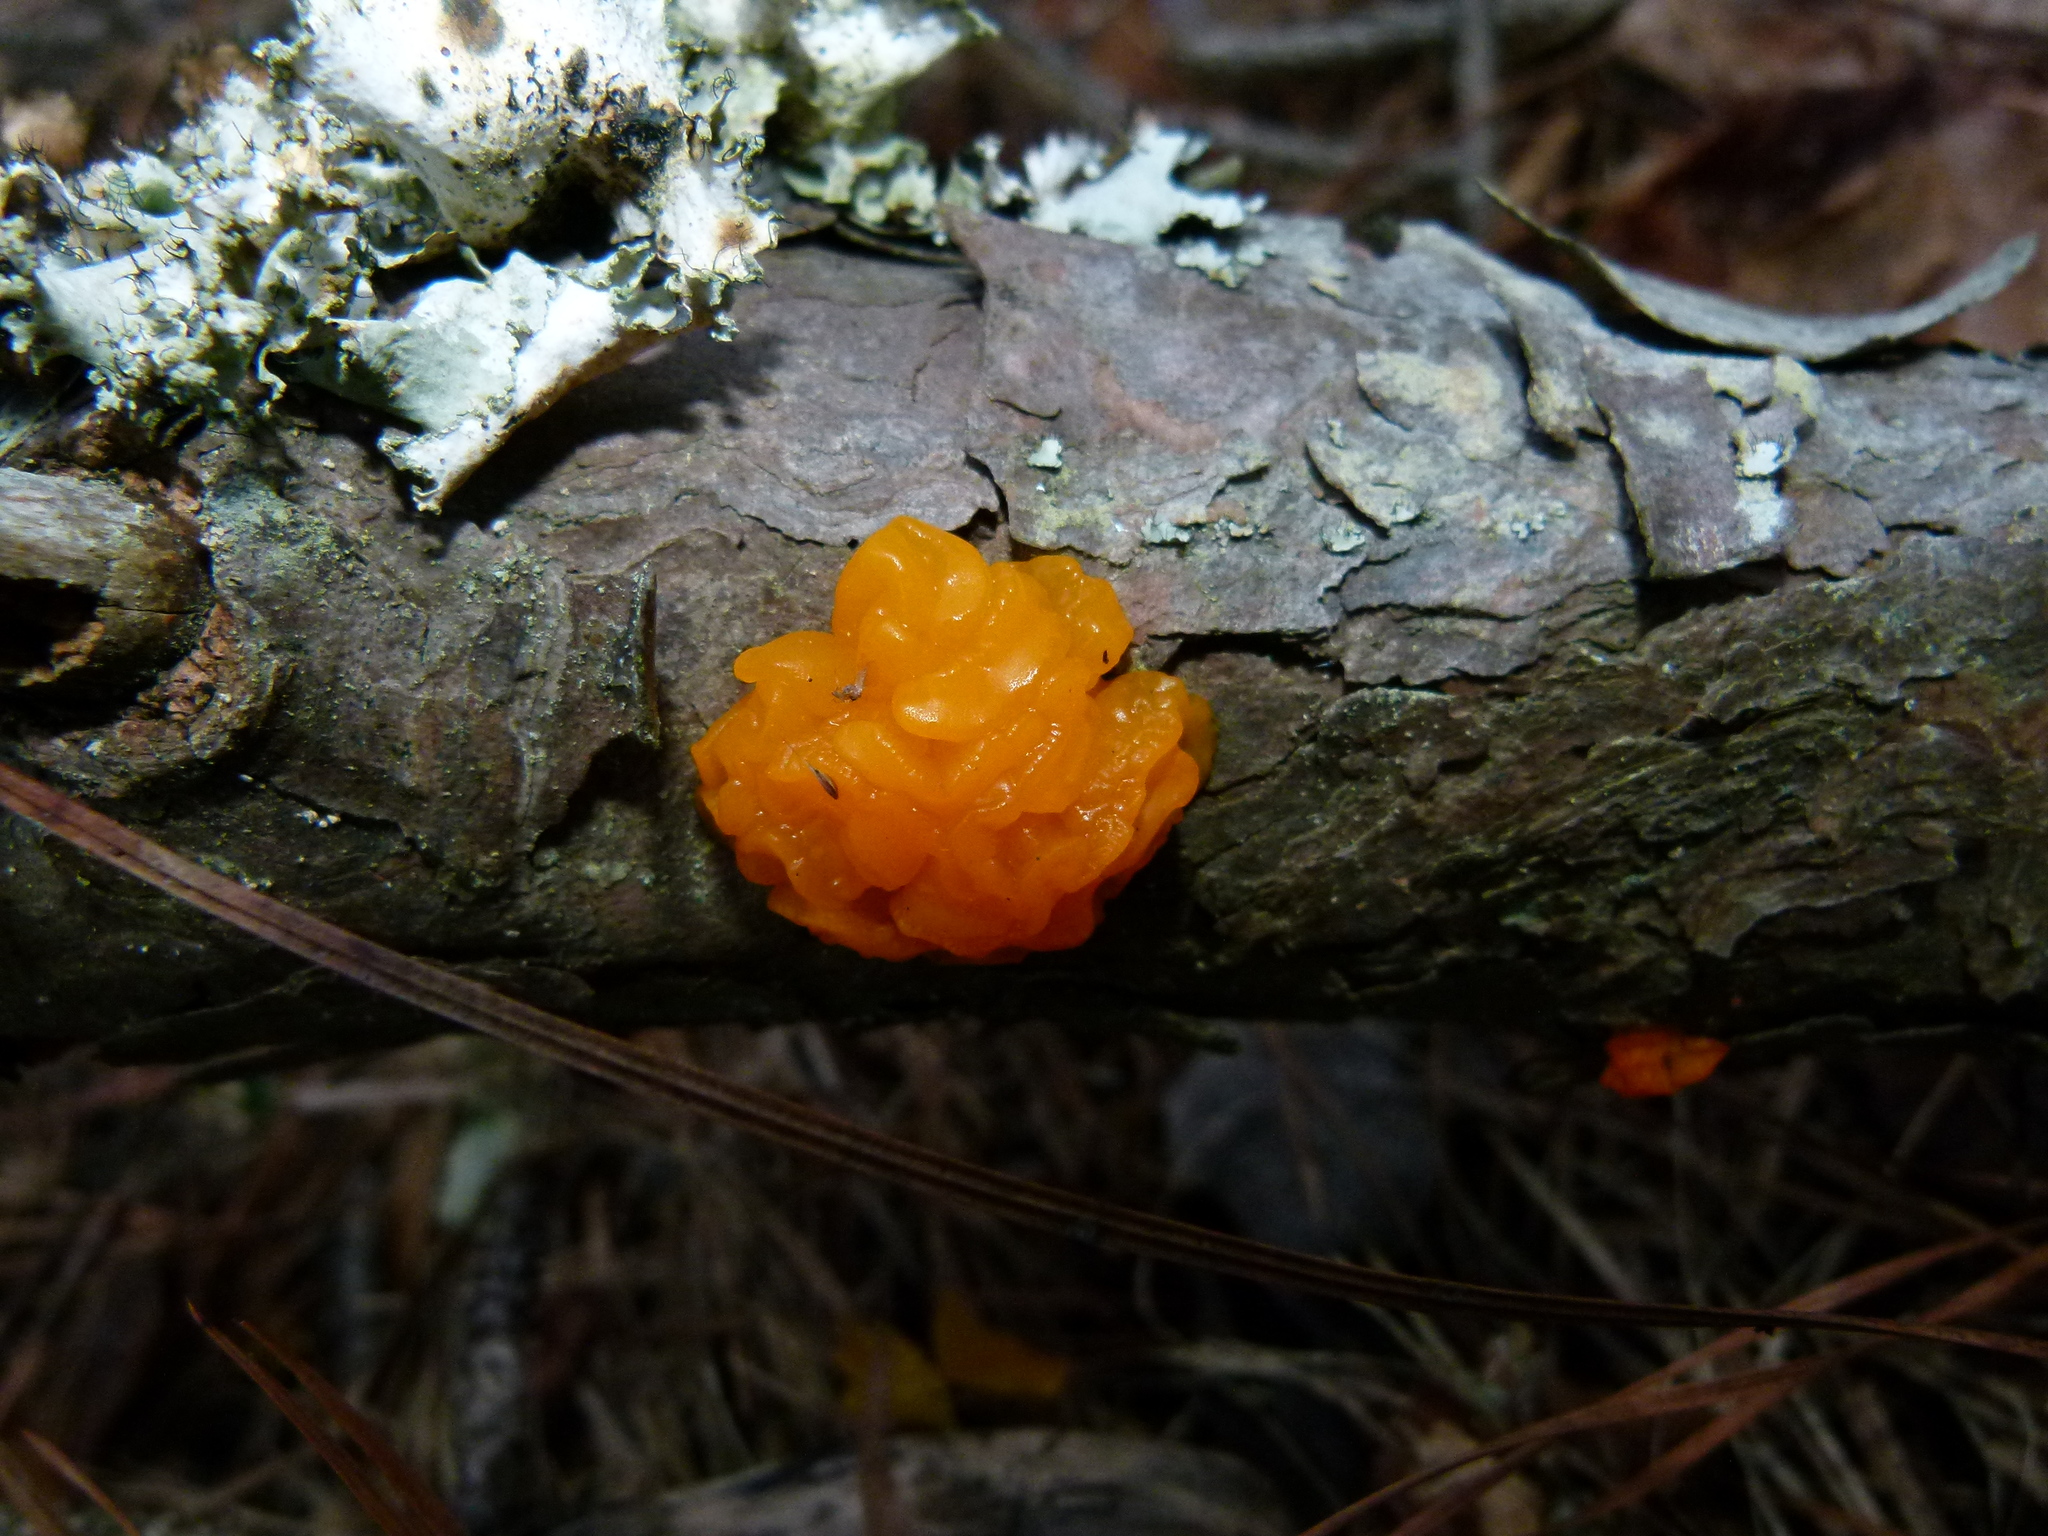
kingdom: Fungi
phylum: Basidiomycota
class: Tremellomycetes
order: Tremellales
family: Tremellaceae
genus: Tremella
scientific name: Tremella mesenterica
